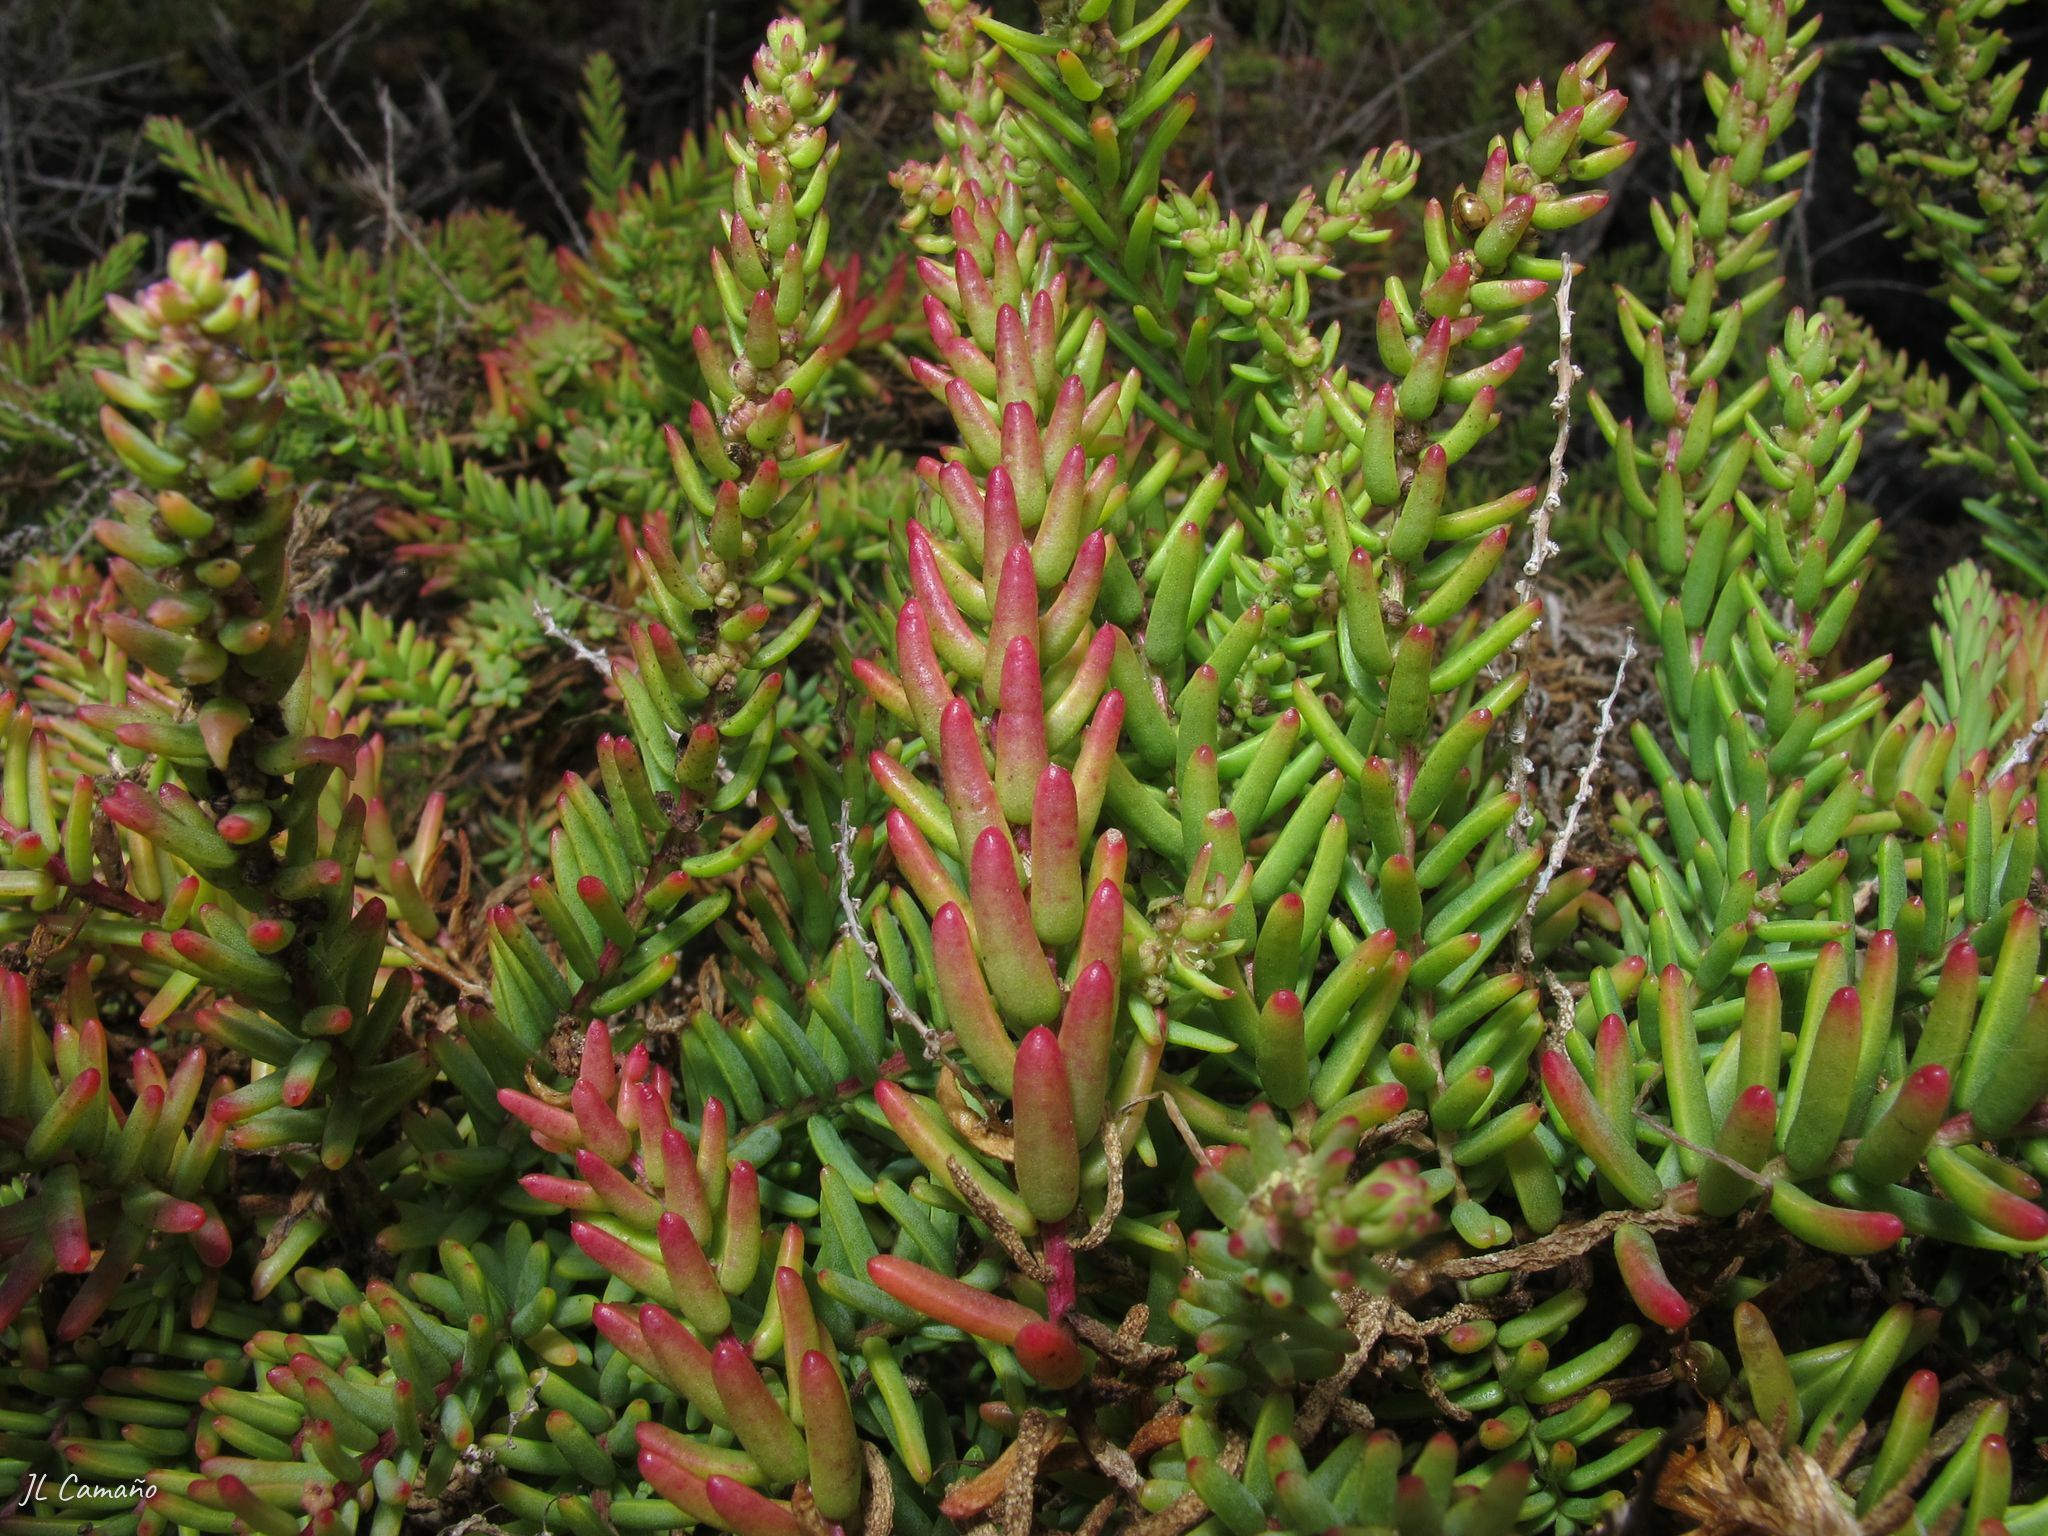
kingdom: Plantae
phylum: Tracheophyta
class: Magnoliopsida
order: Caryophyllales
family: Amaranthaceae
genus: Suaeda
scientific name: Suaeda vera
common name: Shrubby sea-blite
